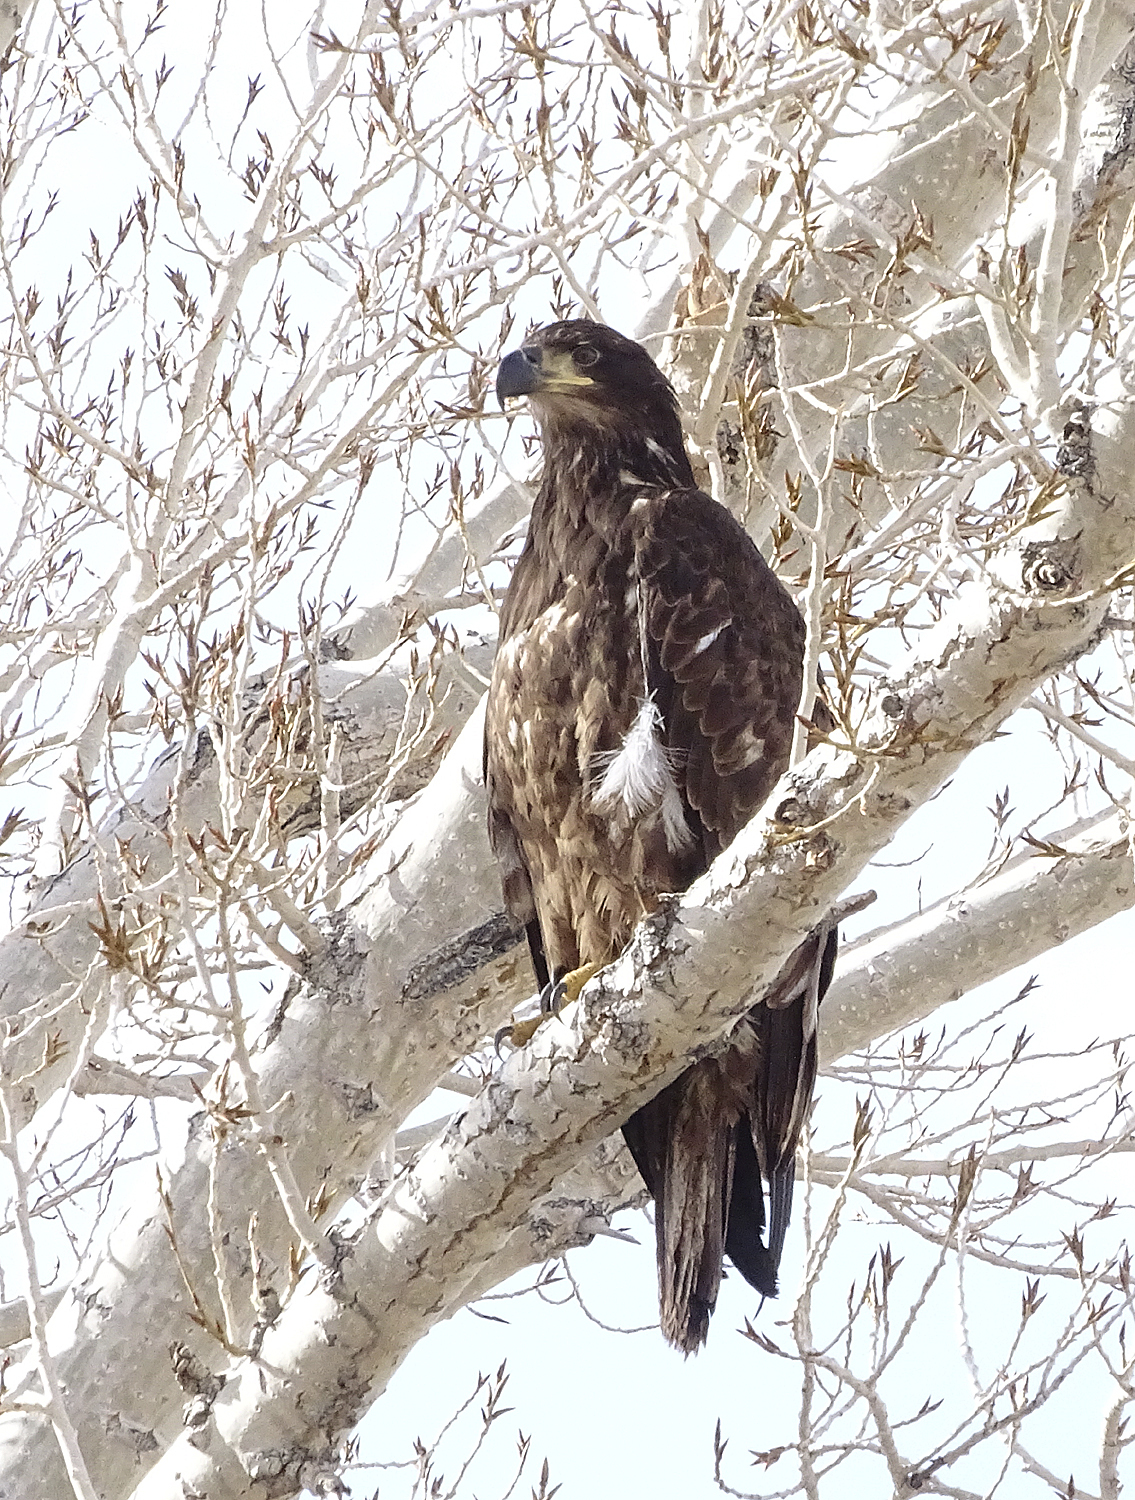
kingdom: Animalia
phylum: Chordata
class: Aves
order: Accipitriformes
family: Accipitridae
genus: Haliaeetus
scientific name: Haliaeetus leucocephalus
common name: Bald eagle
